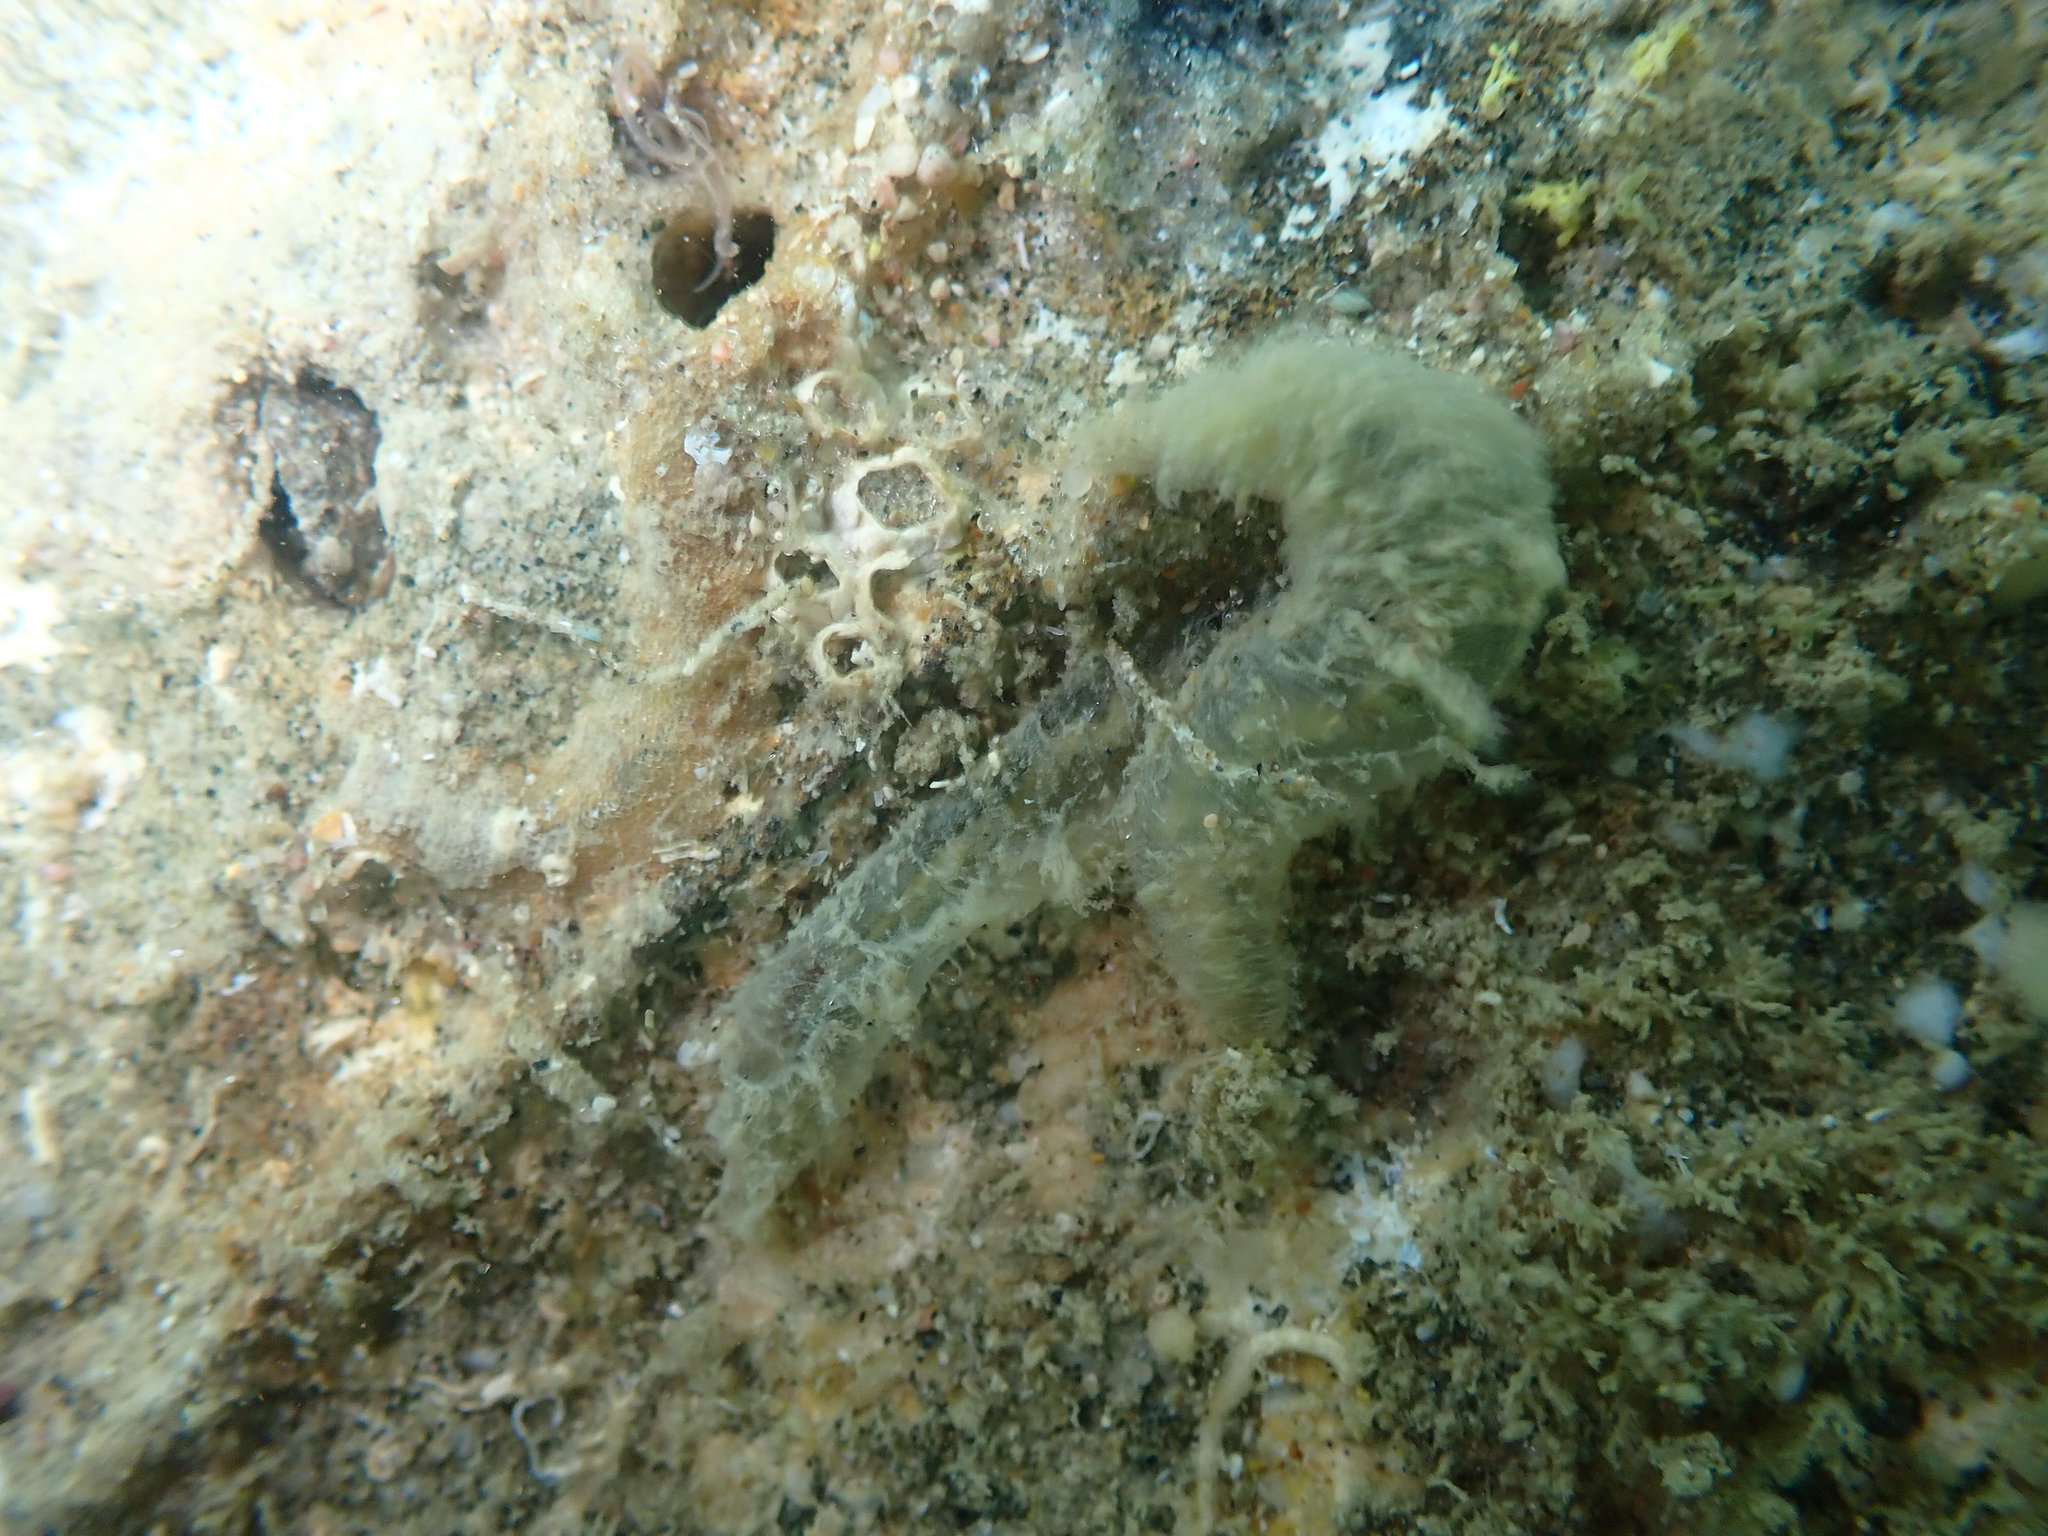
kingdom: Animalia
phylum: Annelida
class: Polychaeta
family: Flabelligeridae
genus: Flabelligera
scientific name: Flabelligera bicolor
